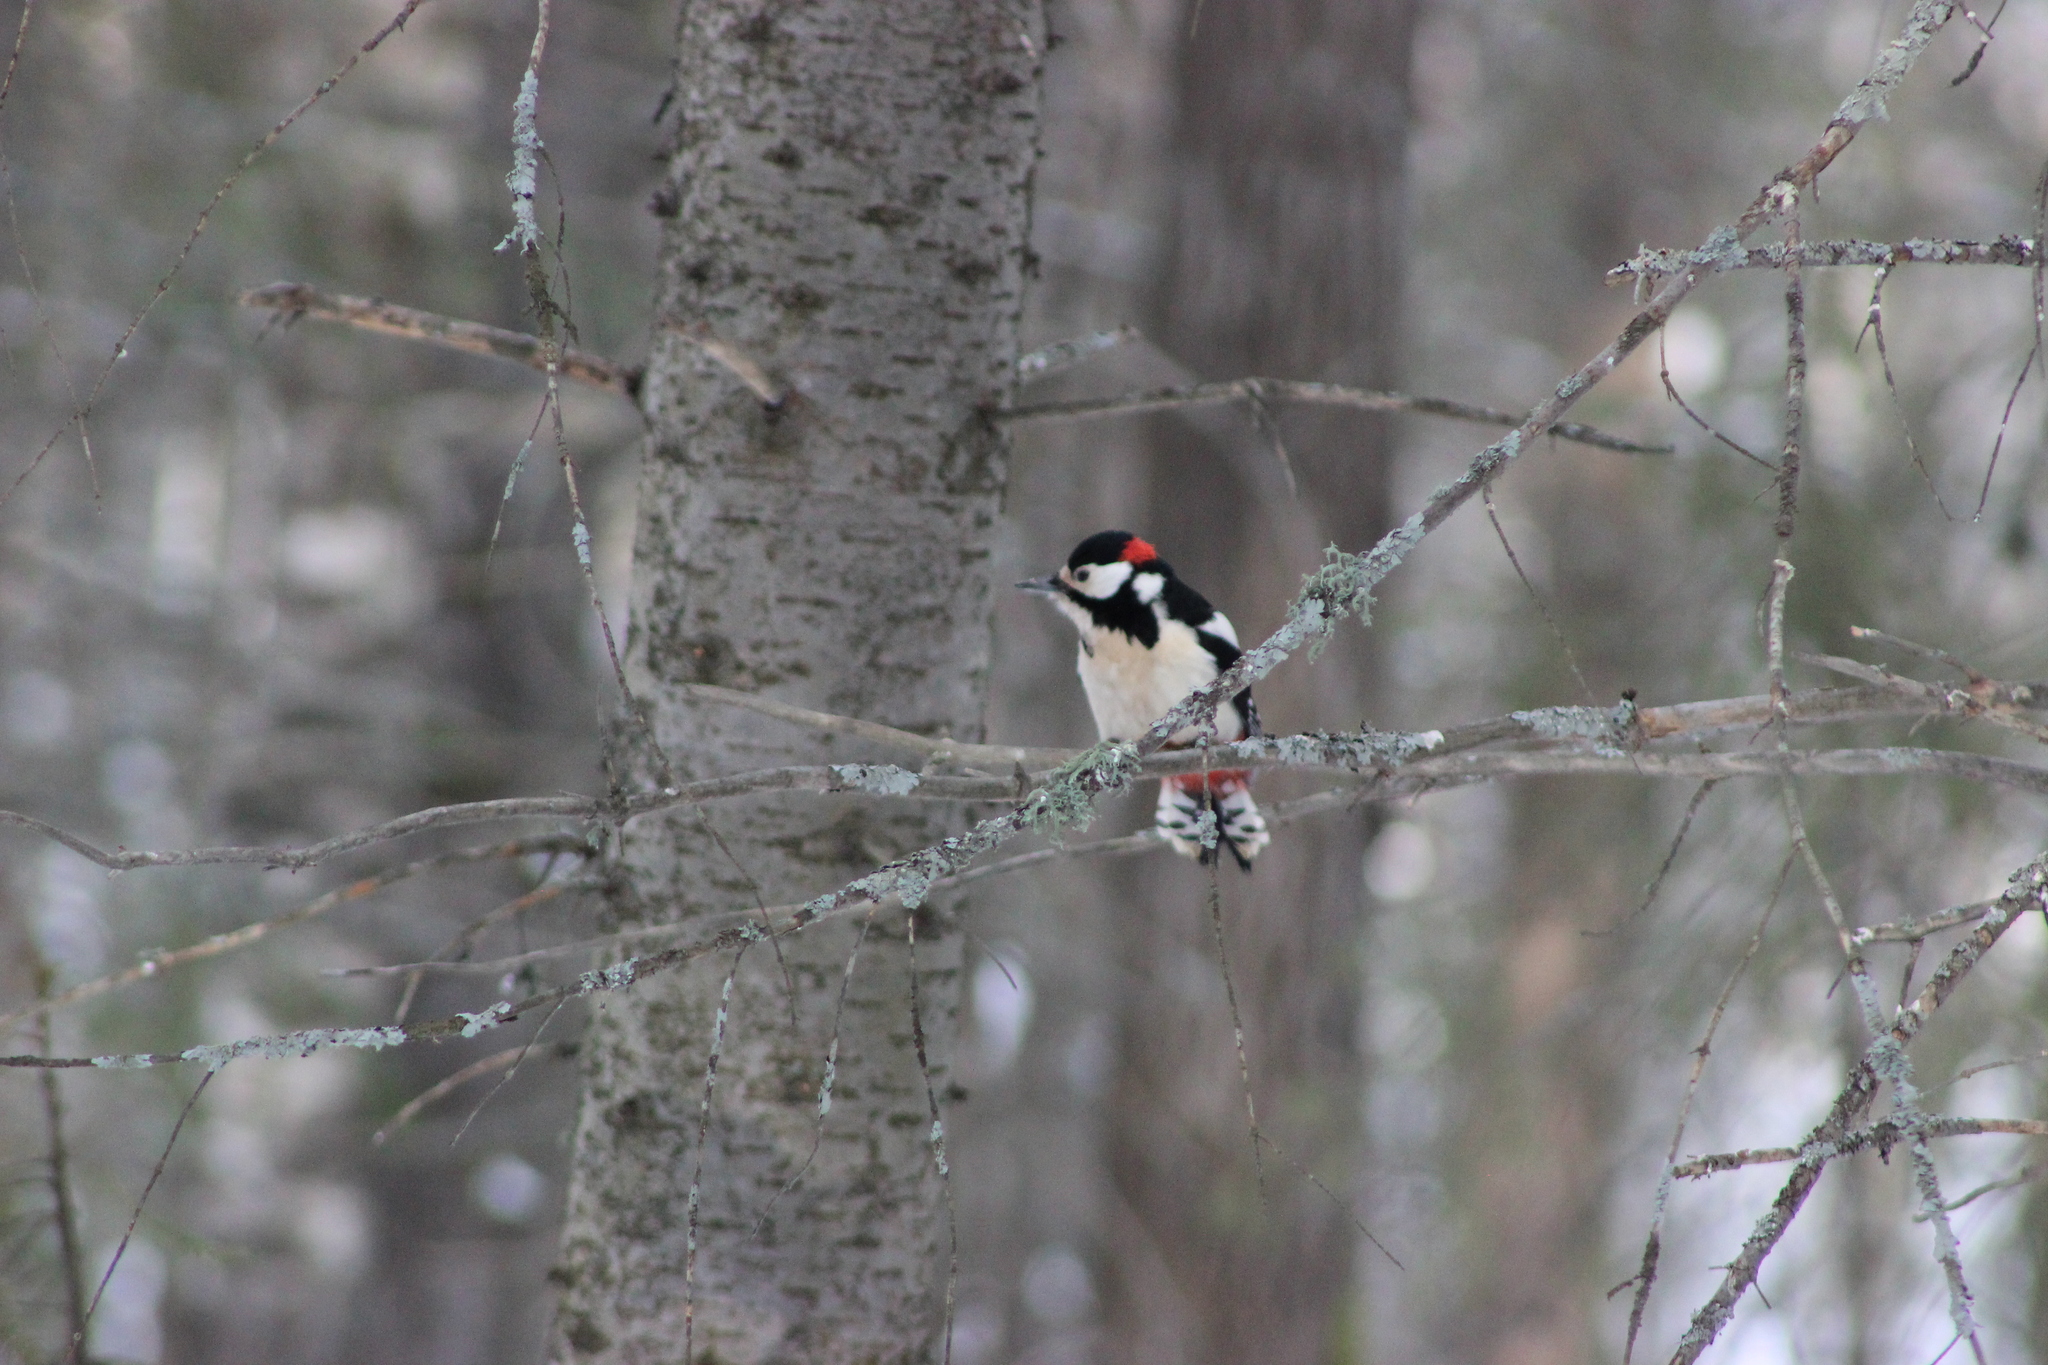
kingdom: Animalia
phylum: Chordata
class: Aves
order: Piciformes
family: Picidae
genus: Dendrocopos
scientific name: Dendrocopos major
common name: Great spotted woodpecker
